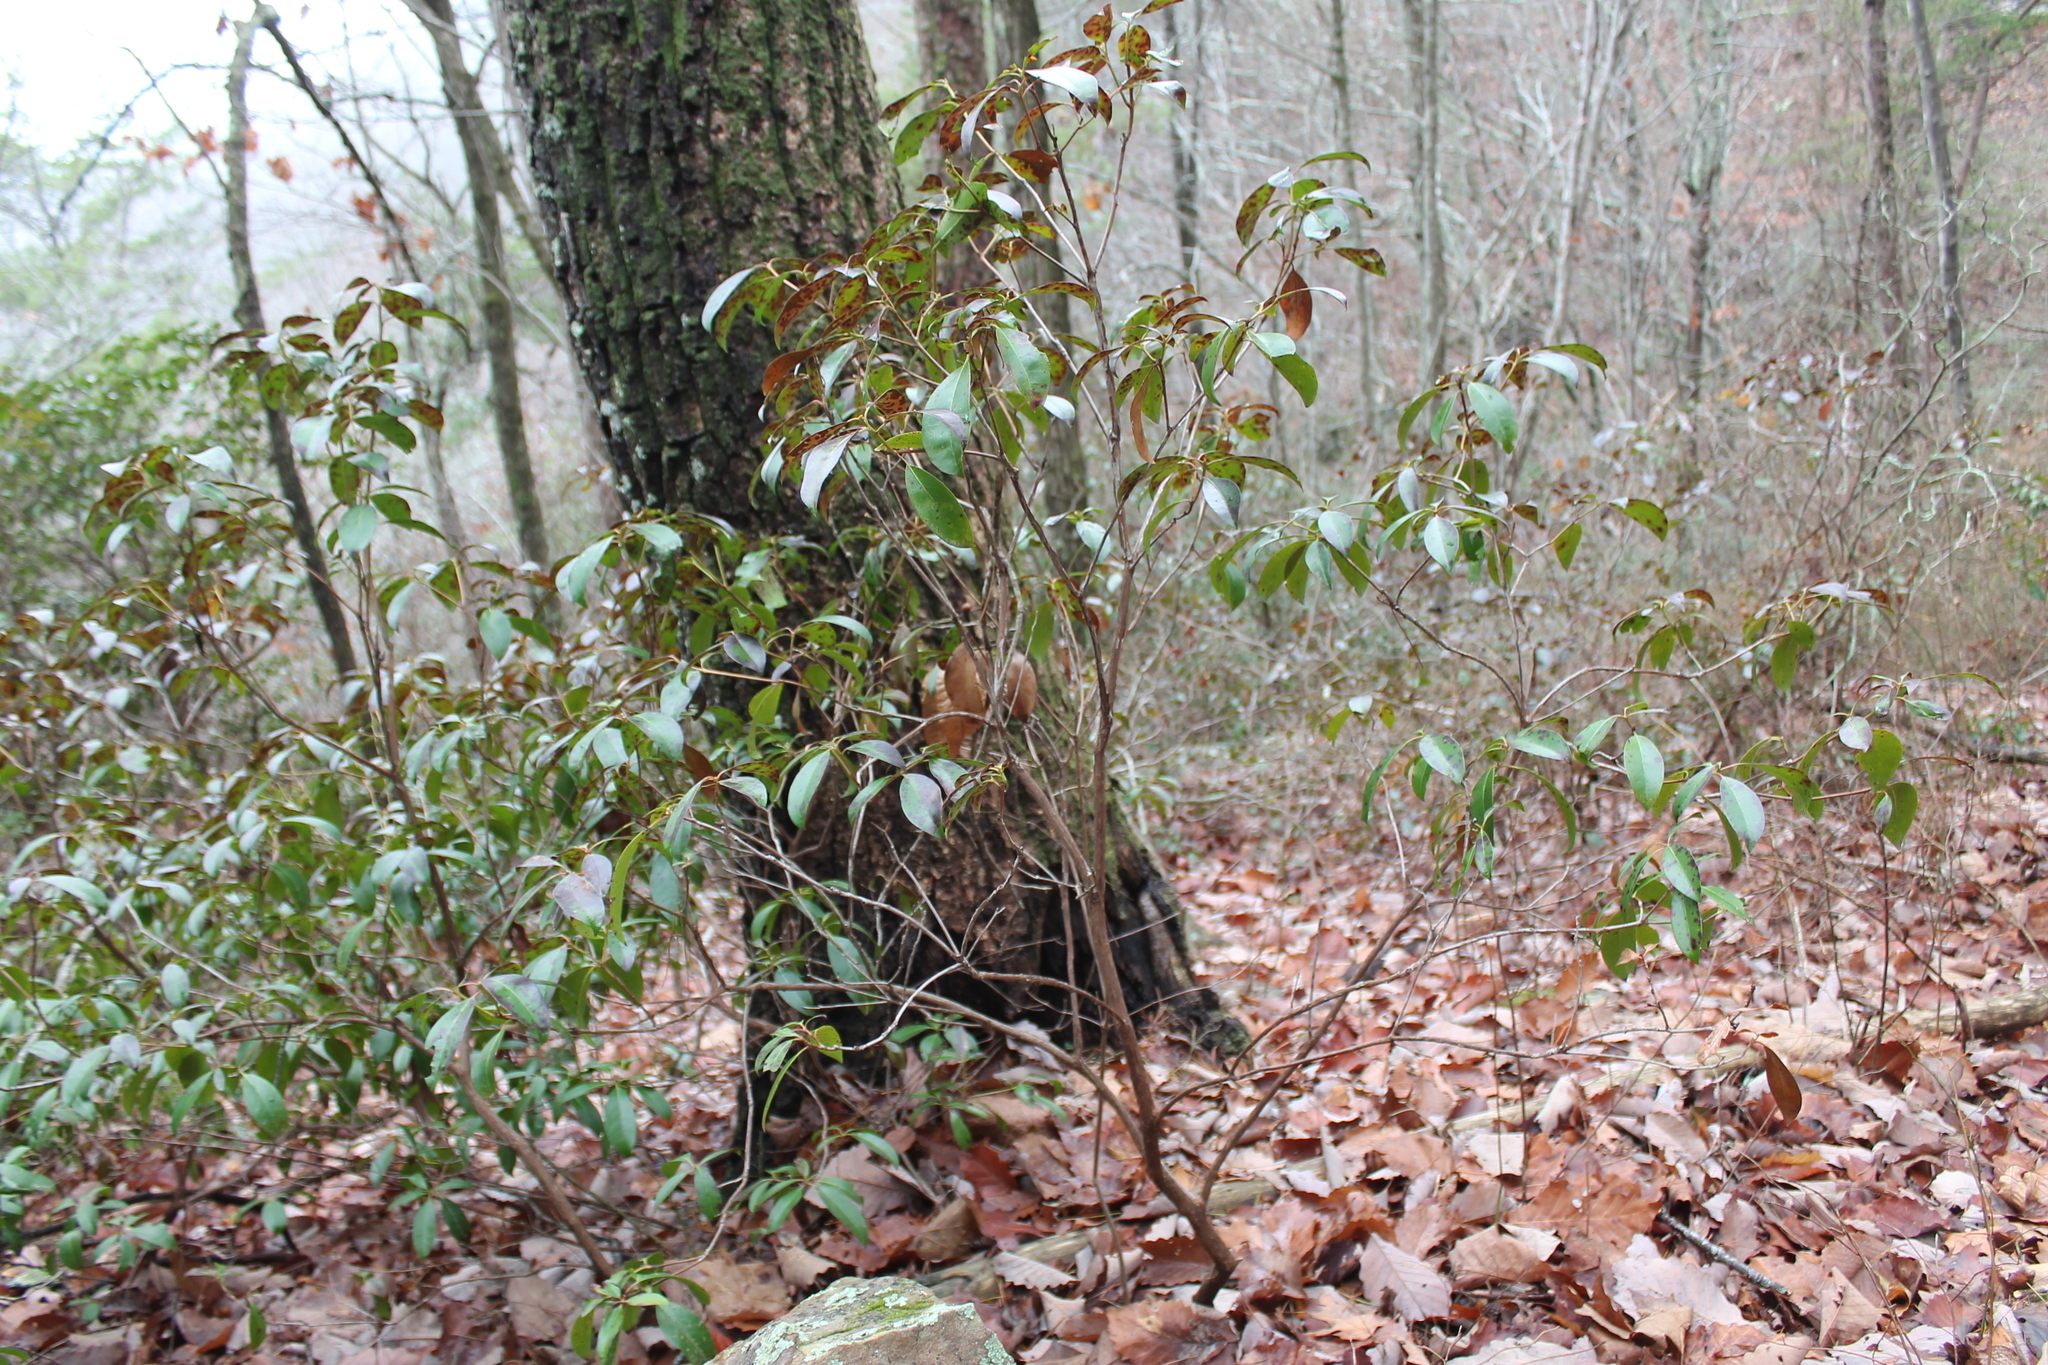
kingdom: Plantae
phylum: Tracheophyta
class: Magnoliopsida
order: Ericales
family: Ericaceae
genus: Kalmia
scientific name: Kalmia latifolia
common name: Mountain-laurel
